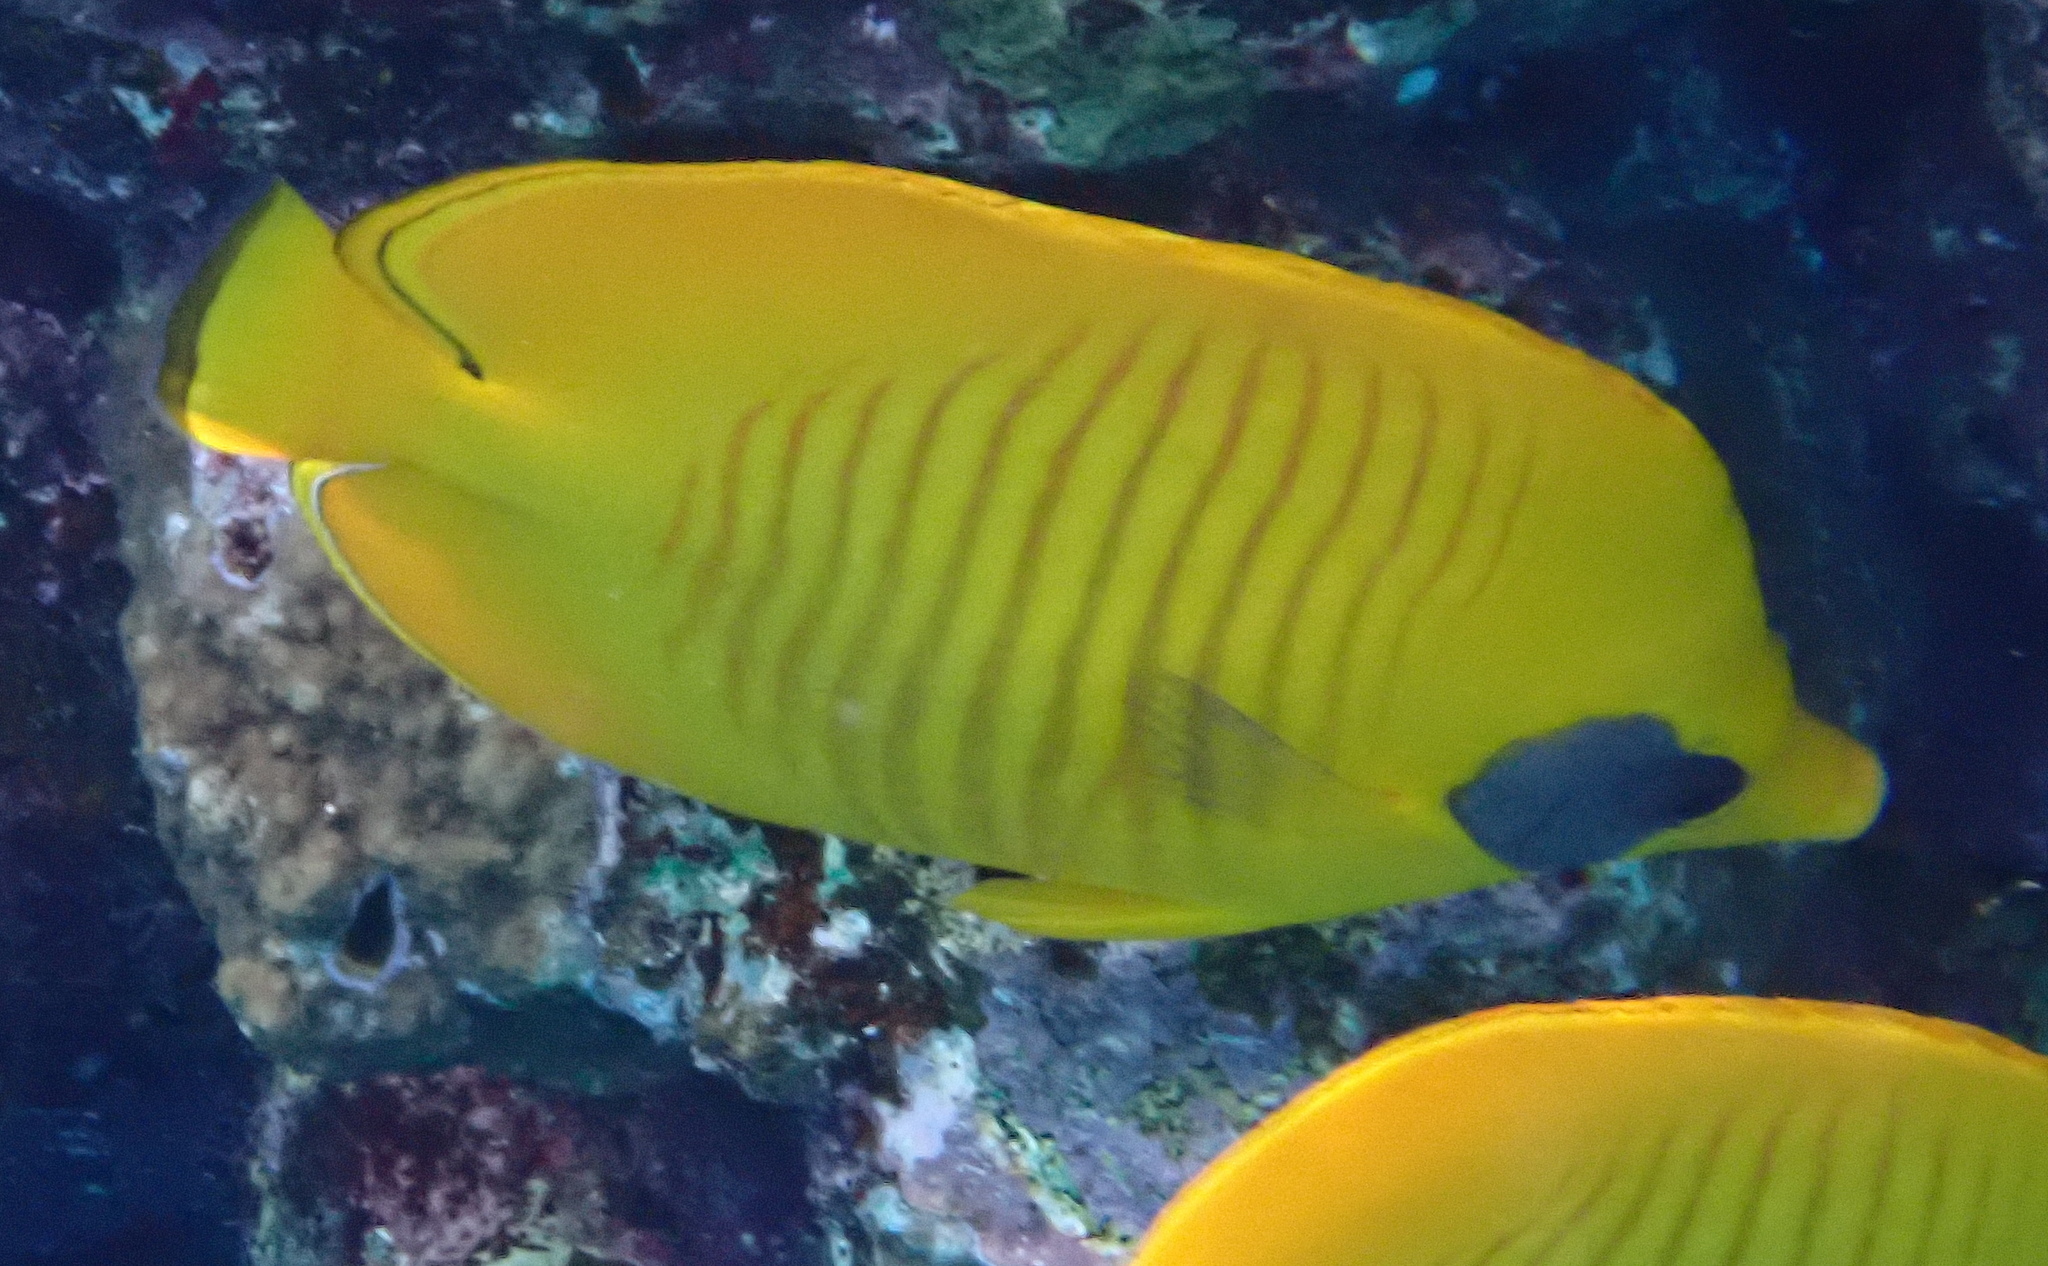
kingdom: Animalia
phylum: Chordata
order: Perciformes
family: Chaetodontidae
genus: Chaetodon
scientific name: Chaetodon semilarvatus
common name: Golden butterflyfish
